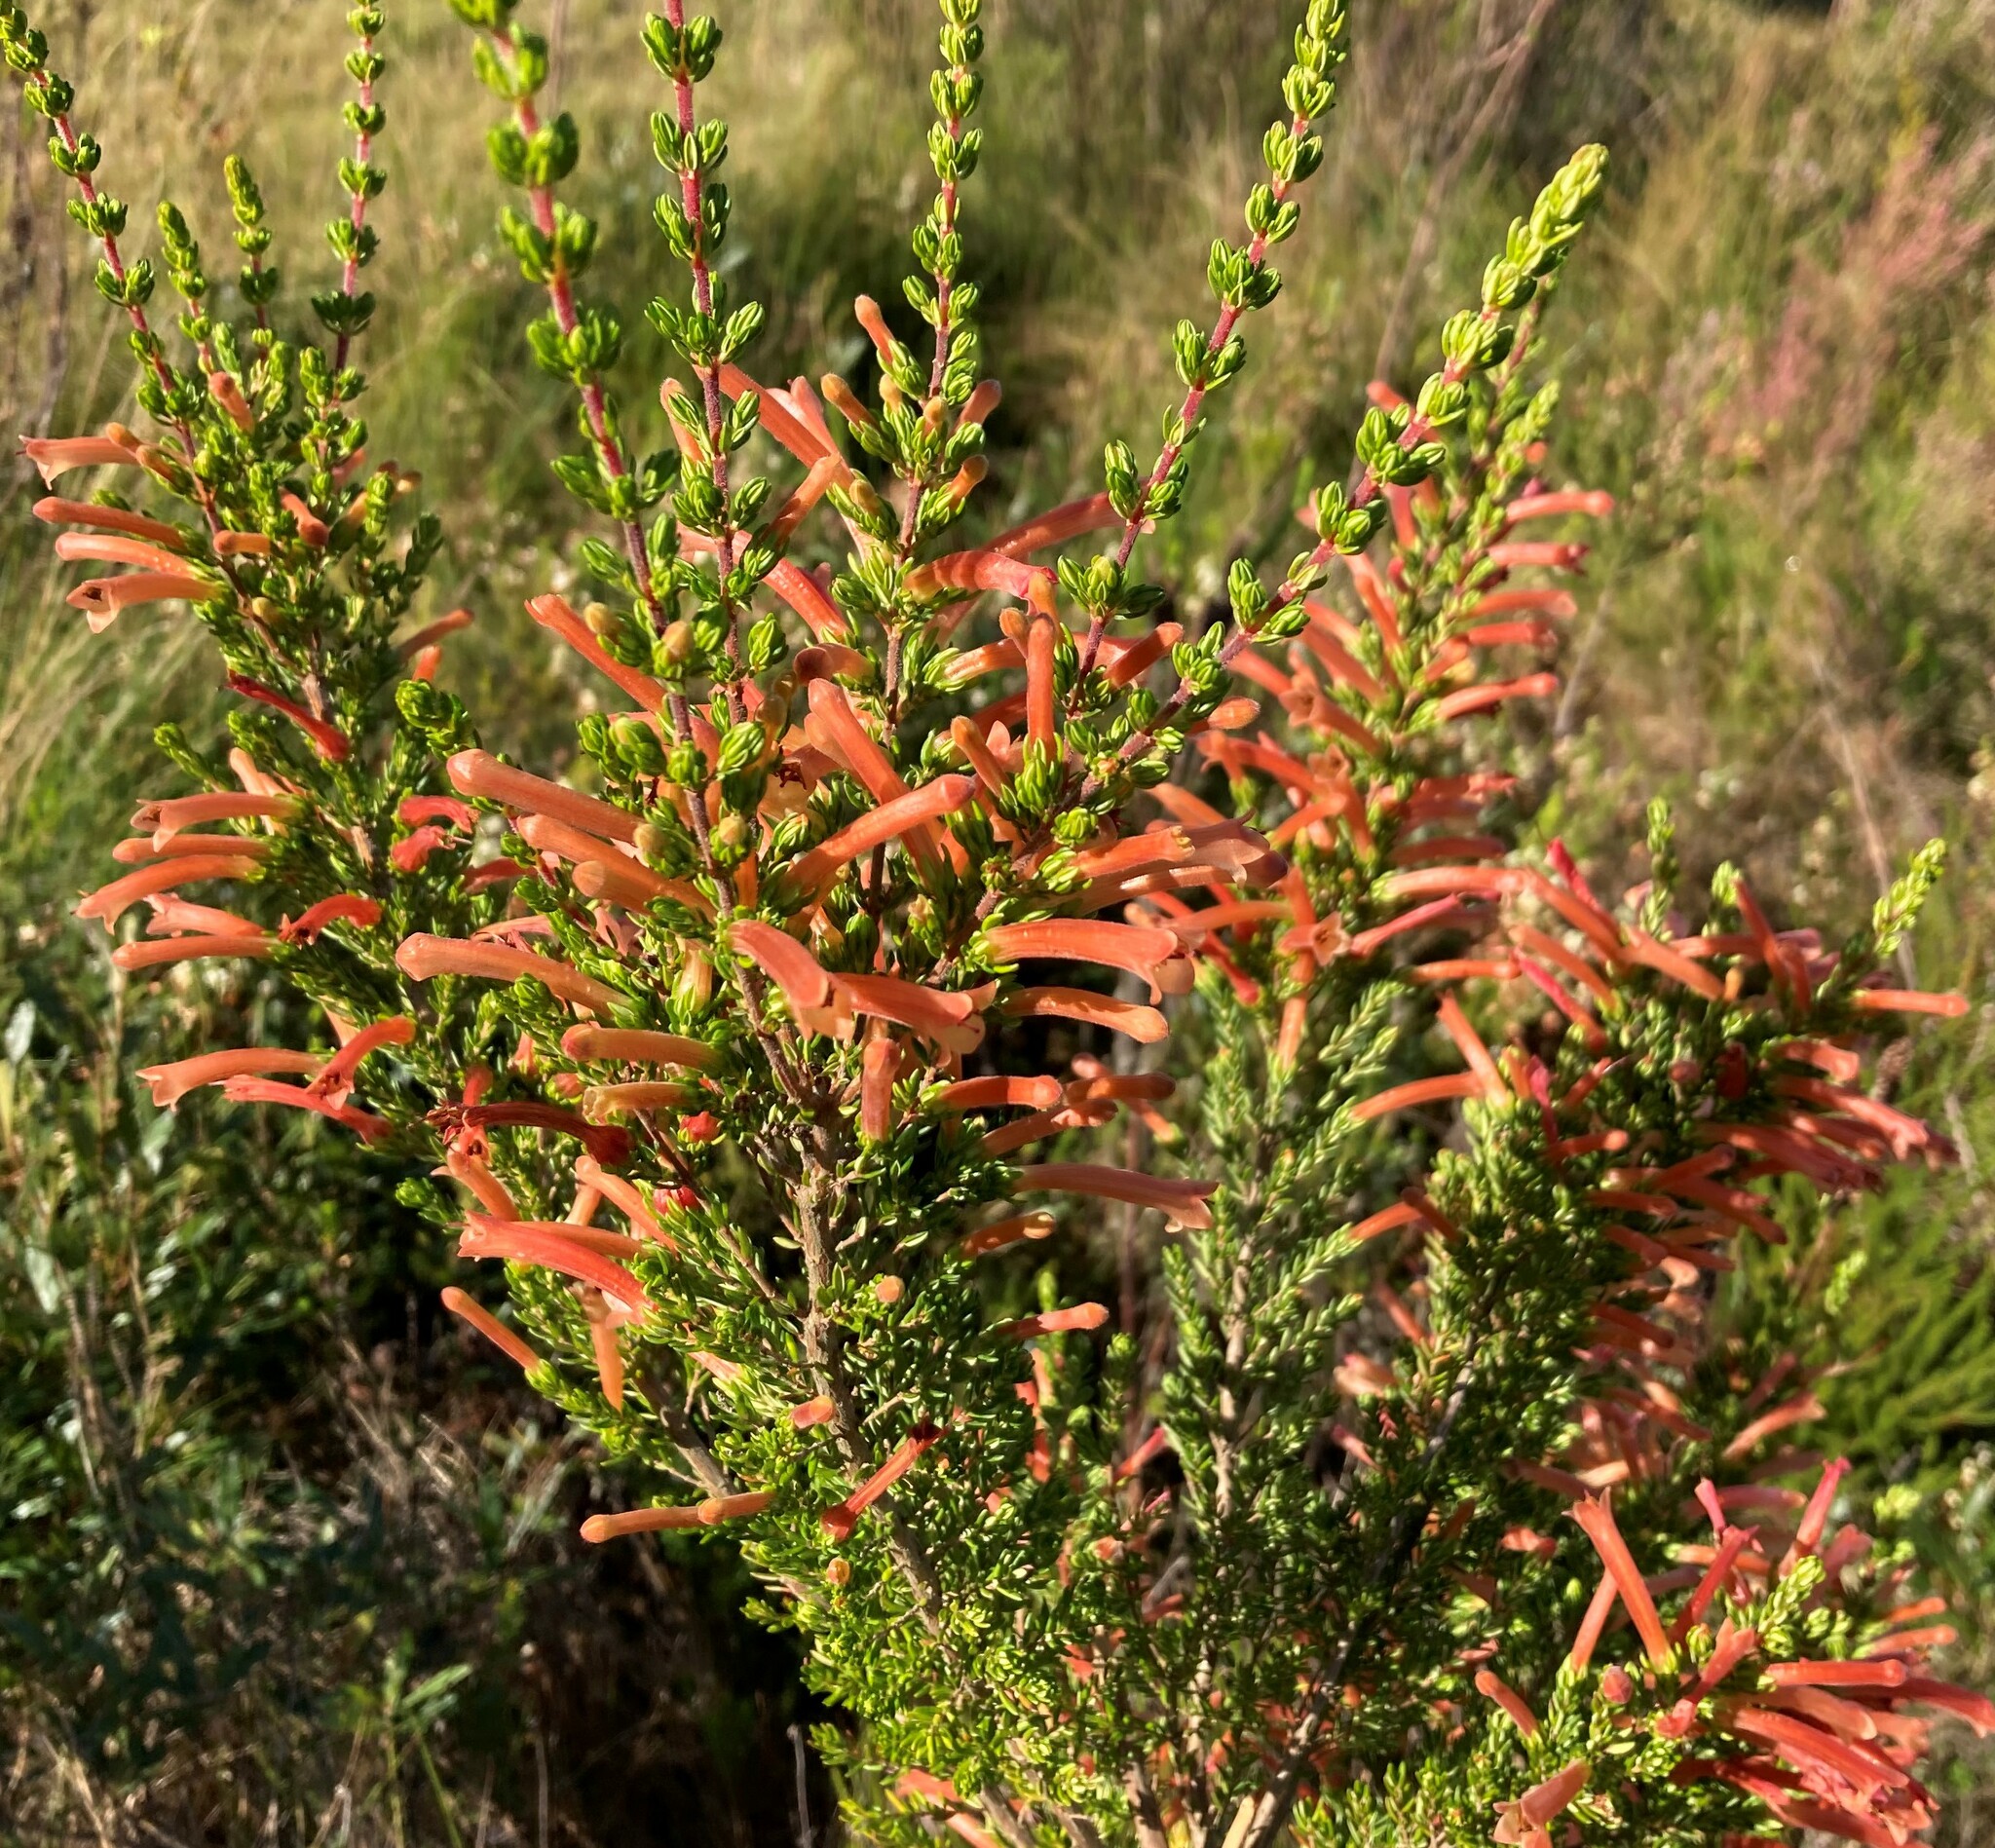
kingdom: Plantae
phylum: Tracheophyta
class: Magnoliopsida
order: Ericales
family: Ericaceae
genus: Erica
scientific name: Erica curviflora
